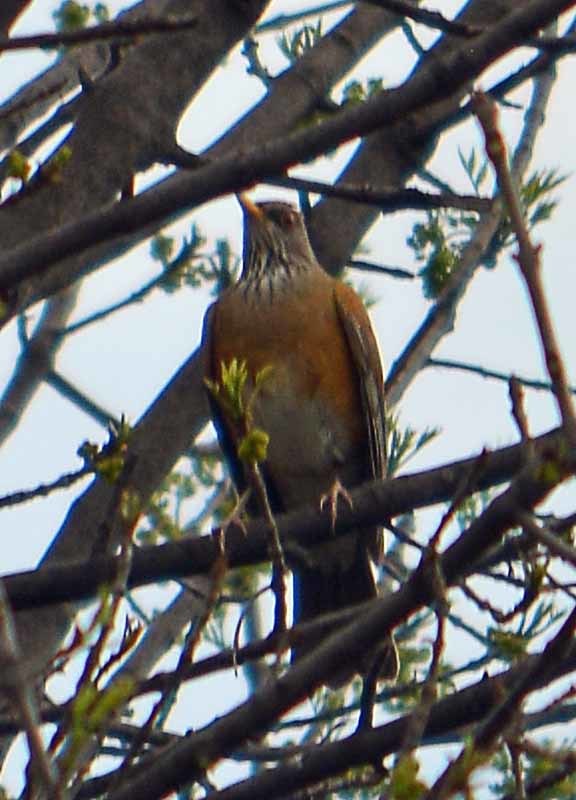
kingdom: Animalia
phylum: Chordata
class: Aves
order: Passeriformes
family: Turdidae
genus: Turdus
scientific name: Turdus rufopalliatus
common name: Rufous-backed robin
